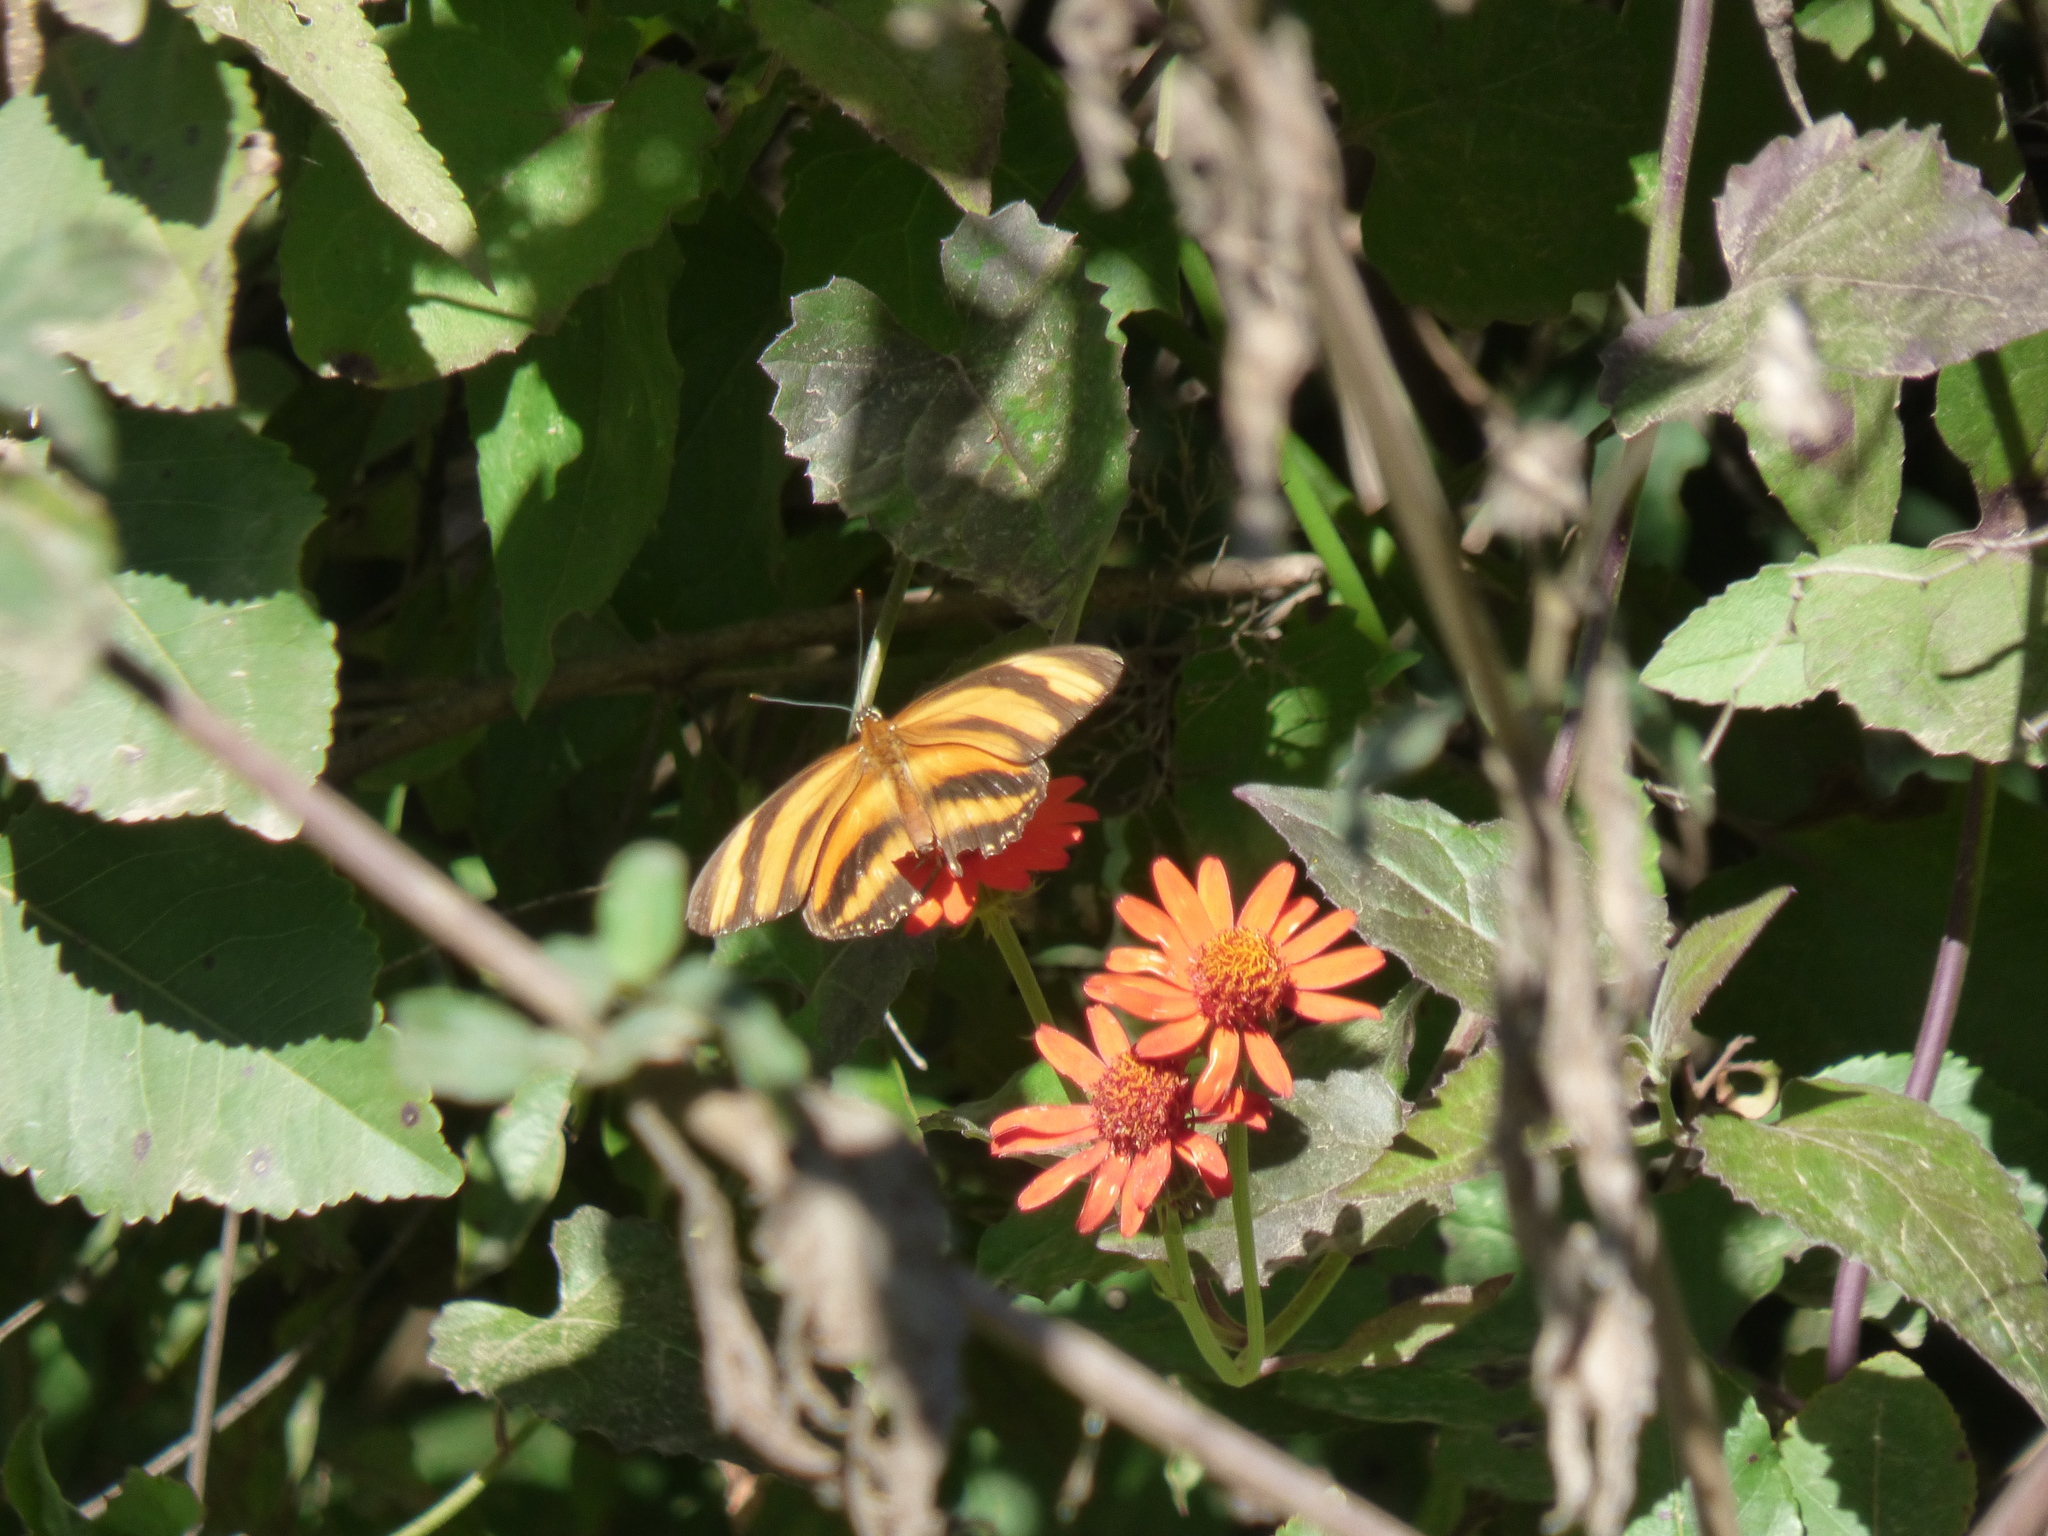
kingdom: Animalia
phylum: Arthropoda
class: Insecta
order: Lepidoptera
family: Nymphalidae
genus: Dryadula
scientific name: Dryadula phaetusa
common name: Banded orange heliconian
